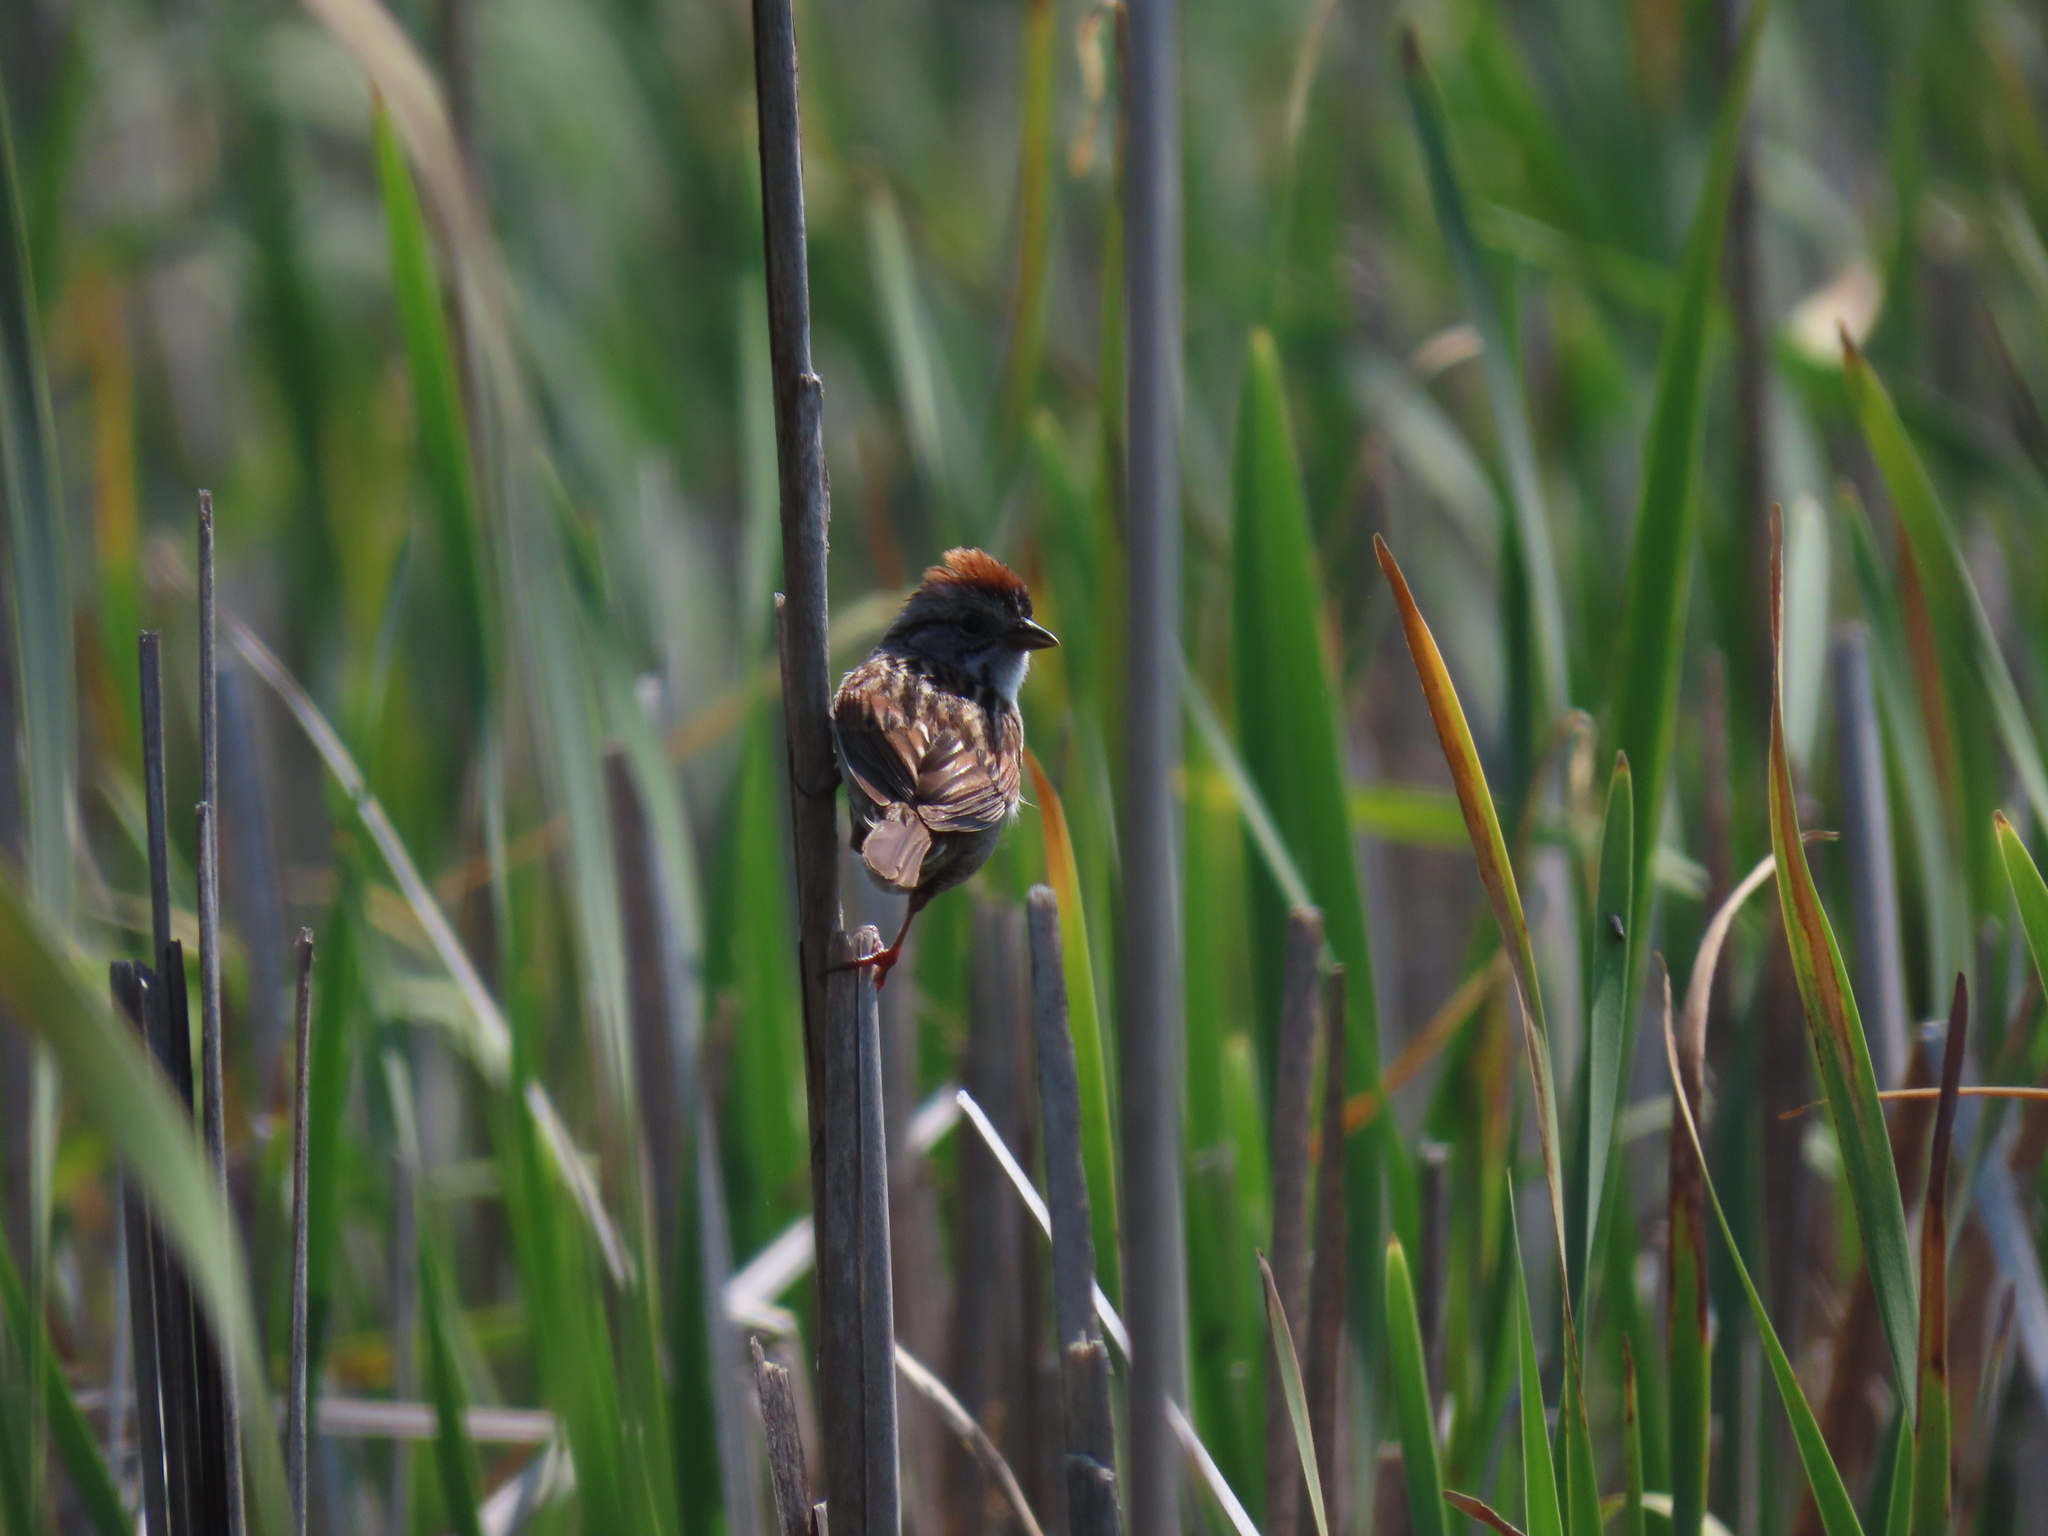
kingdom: Animalia
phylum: Chordata
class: Aves
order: Passeriformes
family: Passerellidae
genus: Melospiza
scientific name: Melospiza georgiana
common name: Swamp sparrow
